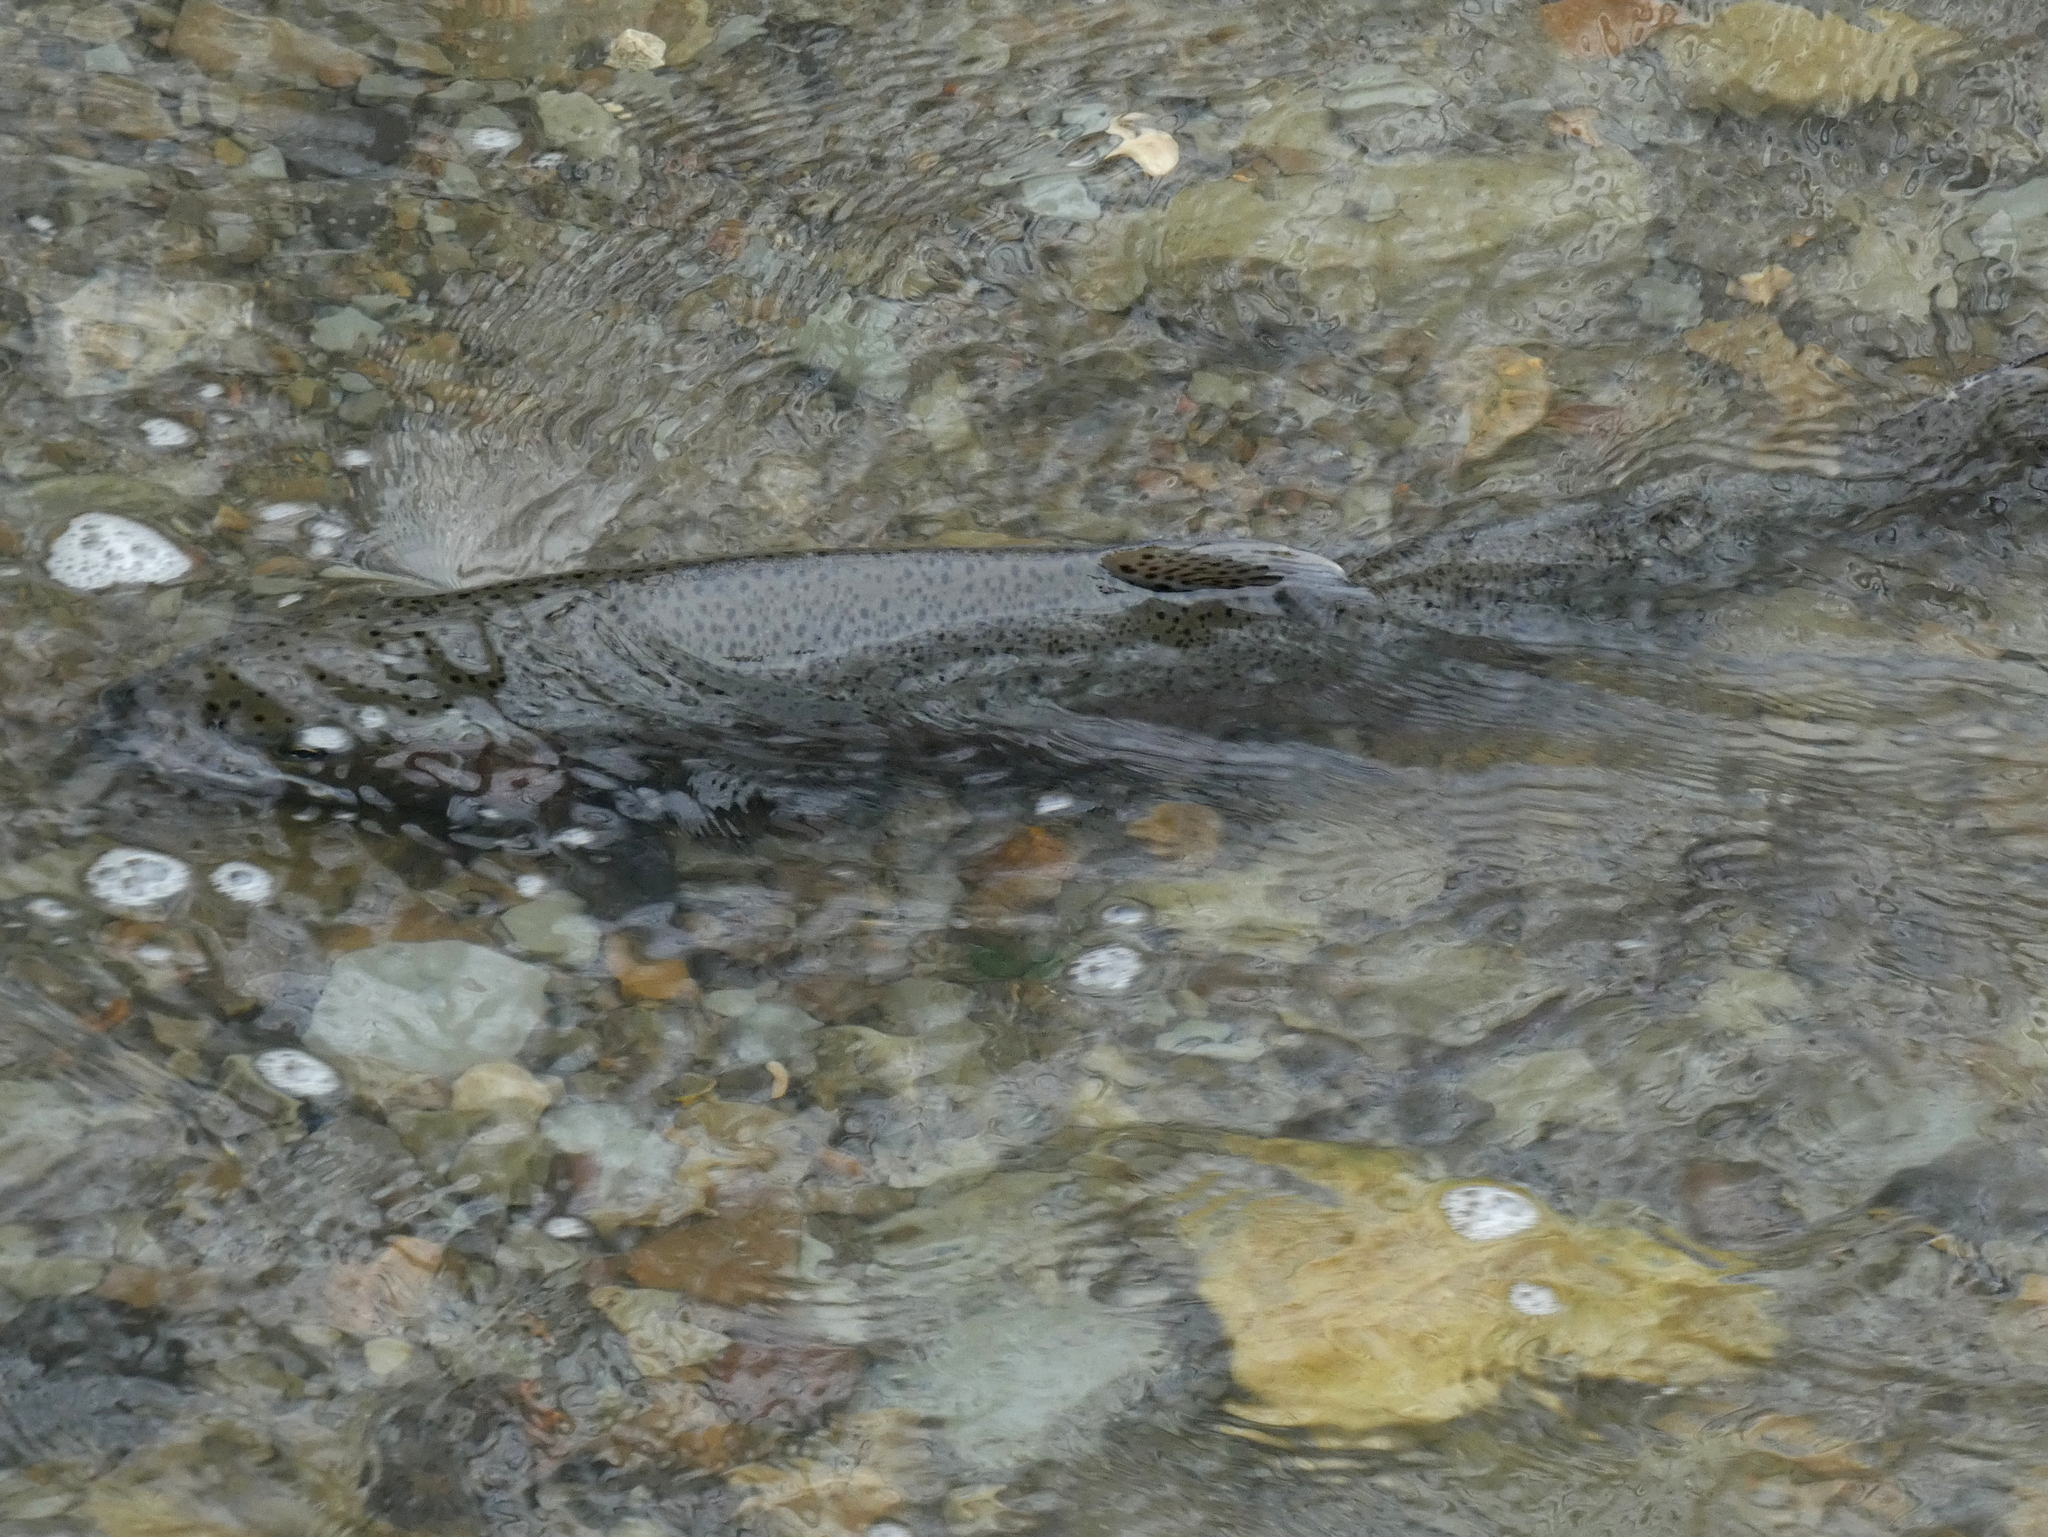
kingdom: Animalia
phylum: Chordata
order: Salmoniformes
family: Salmonidae
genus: Oncorhynchus
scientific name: Oncorhynchus mykiss
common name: Rainbow trout
